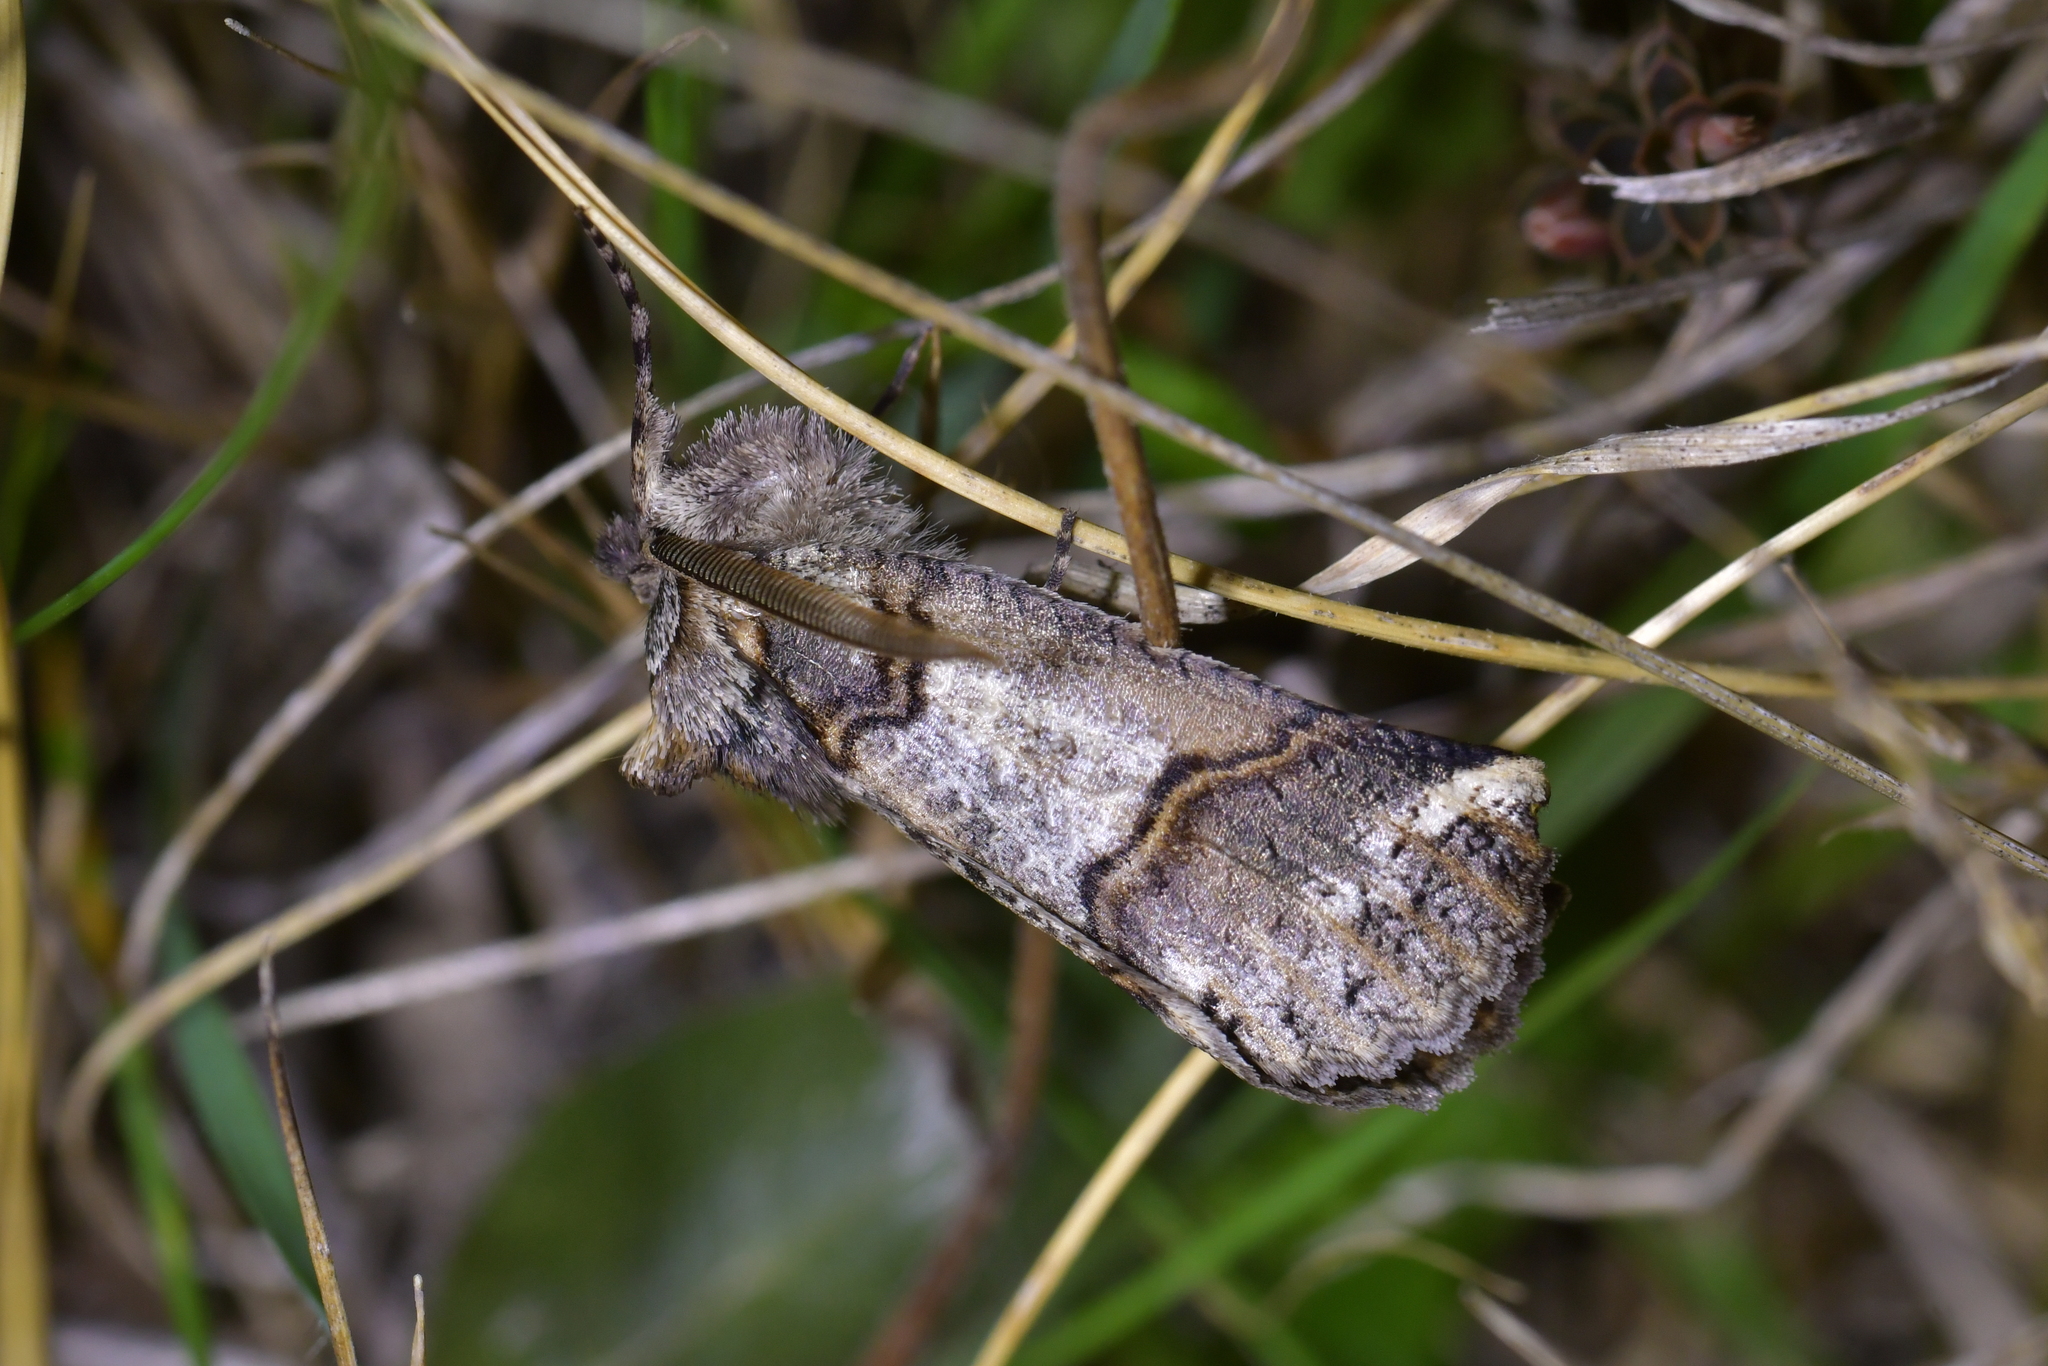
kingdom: Animalia
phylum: Arthropoda
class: Insecta
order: Lepidoptera
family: Geometridae
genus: Declana
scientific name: Declana
